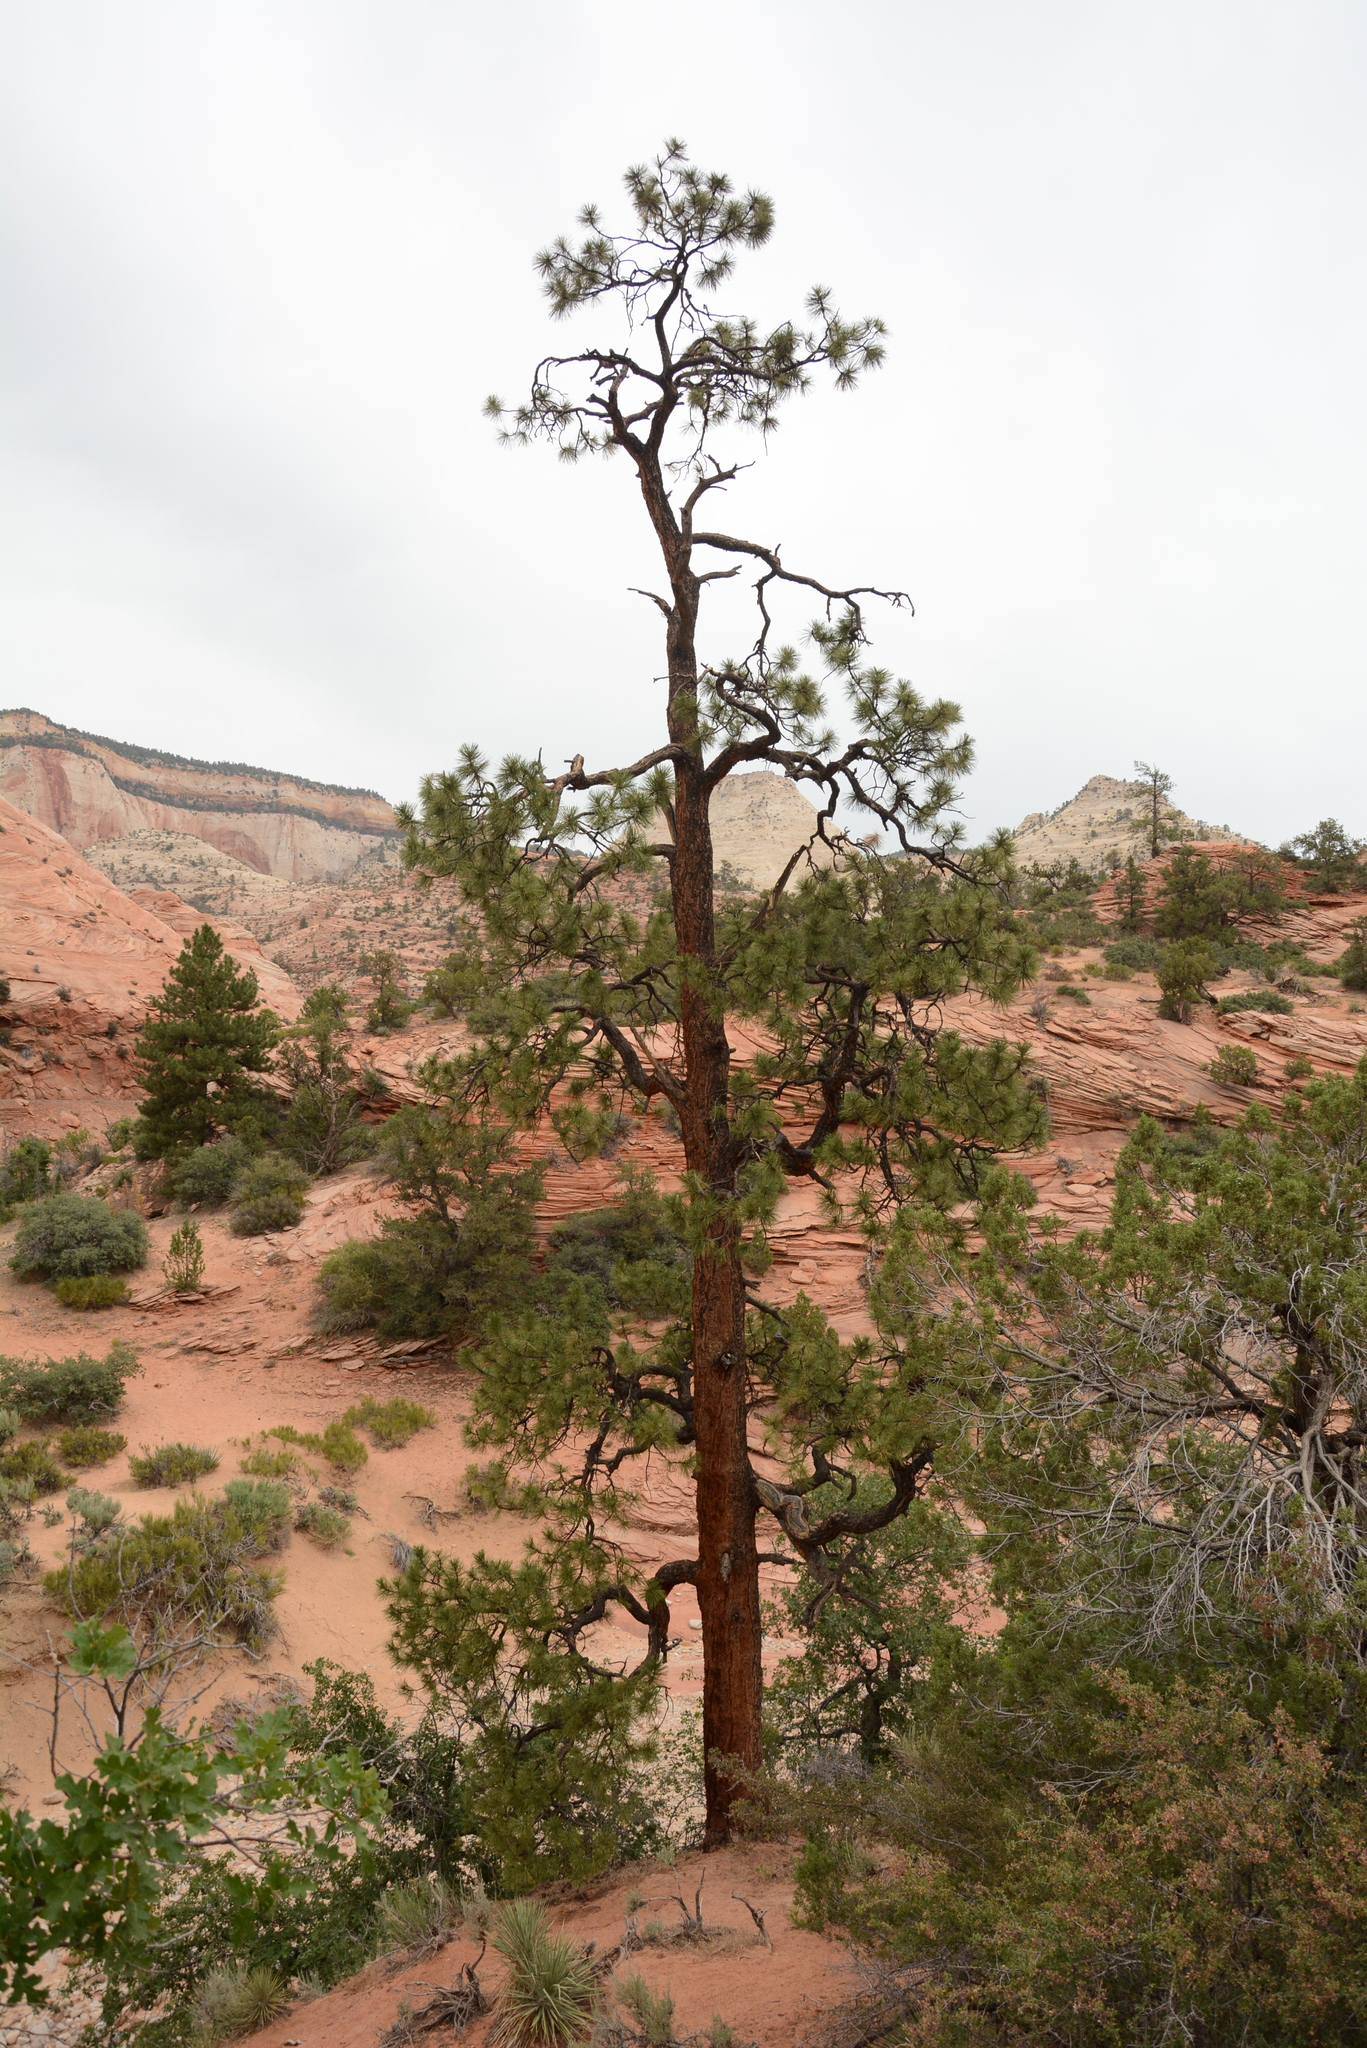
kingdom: Plantae
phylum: Tracheophyta
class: Pinopsida
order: Pinales
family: Pinaceae
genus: Pinus
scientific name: Pinus ponderosa
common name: Western yellow-pine
